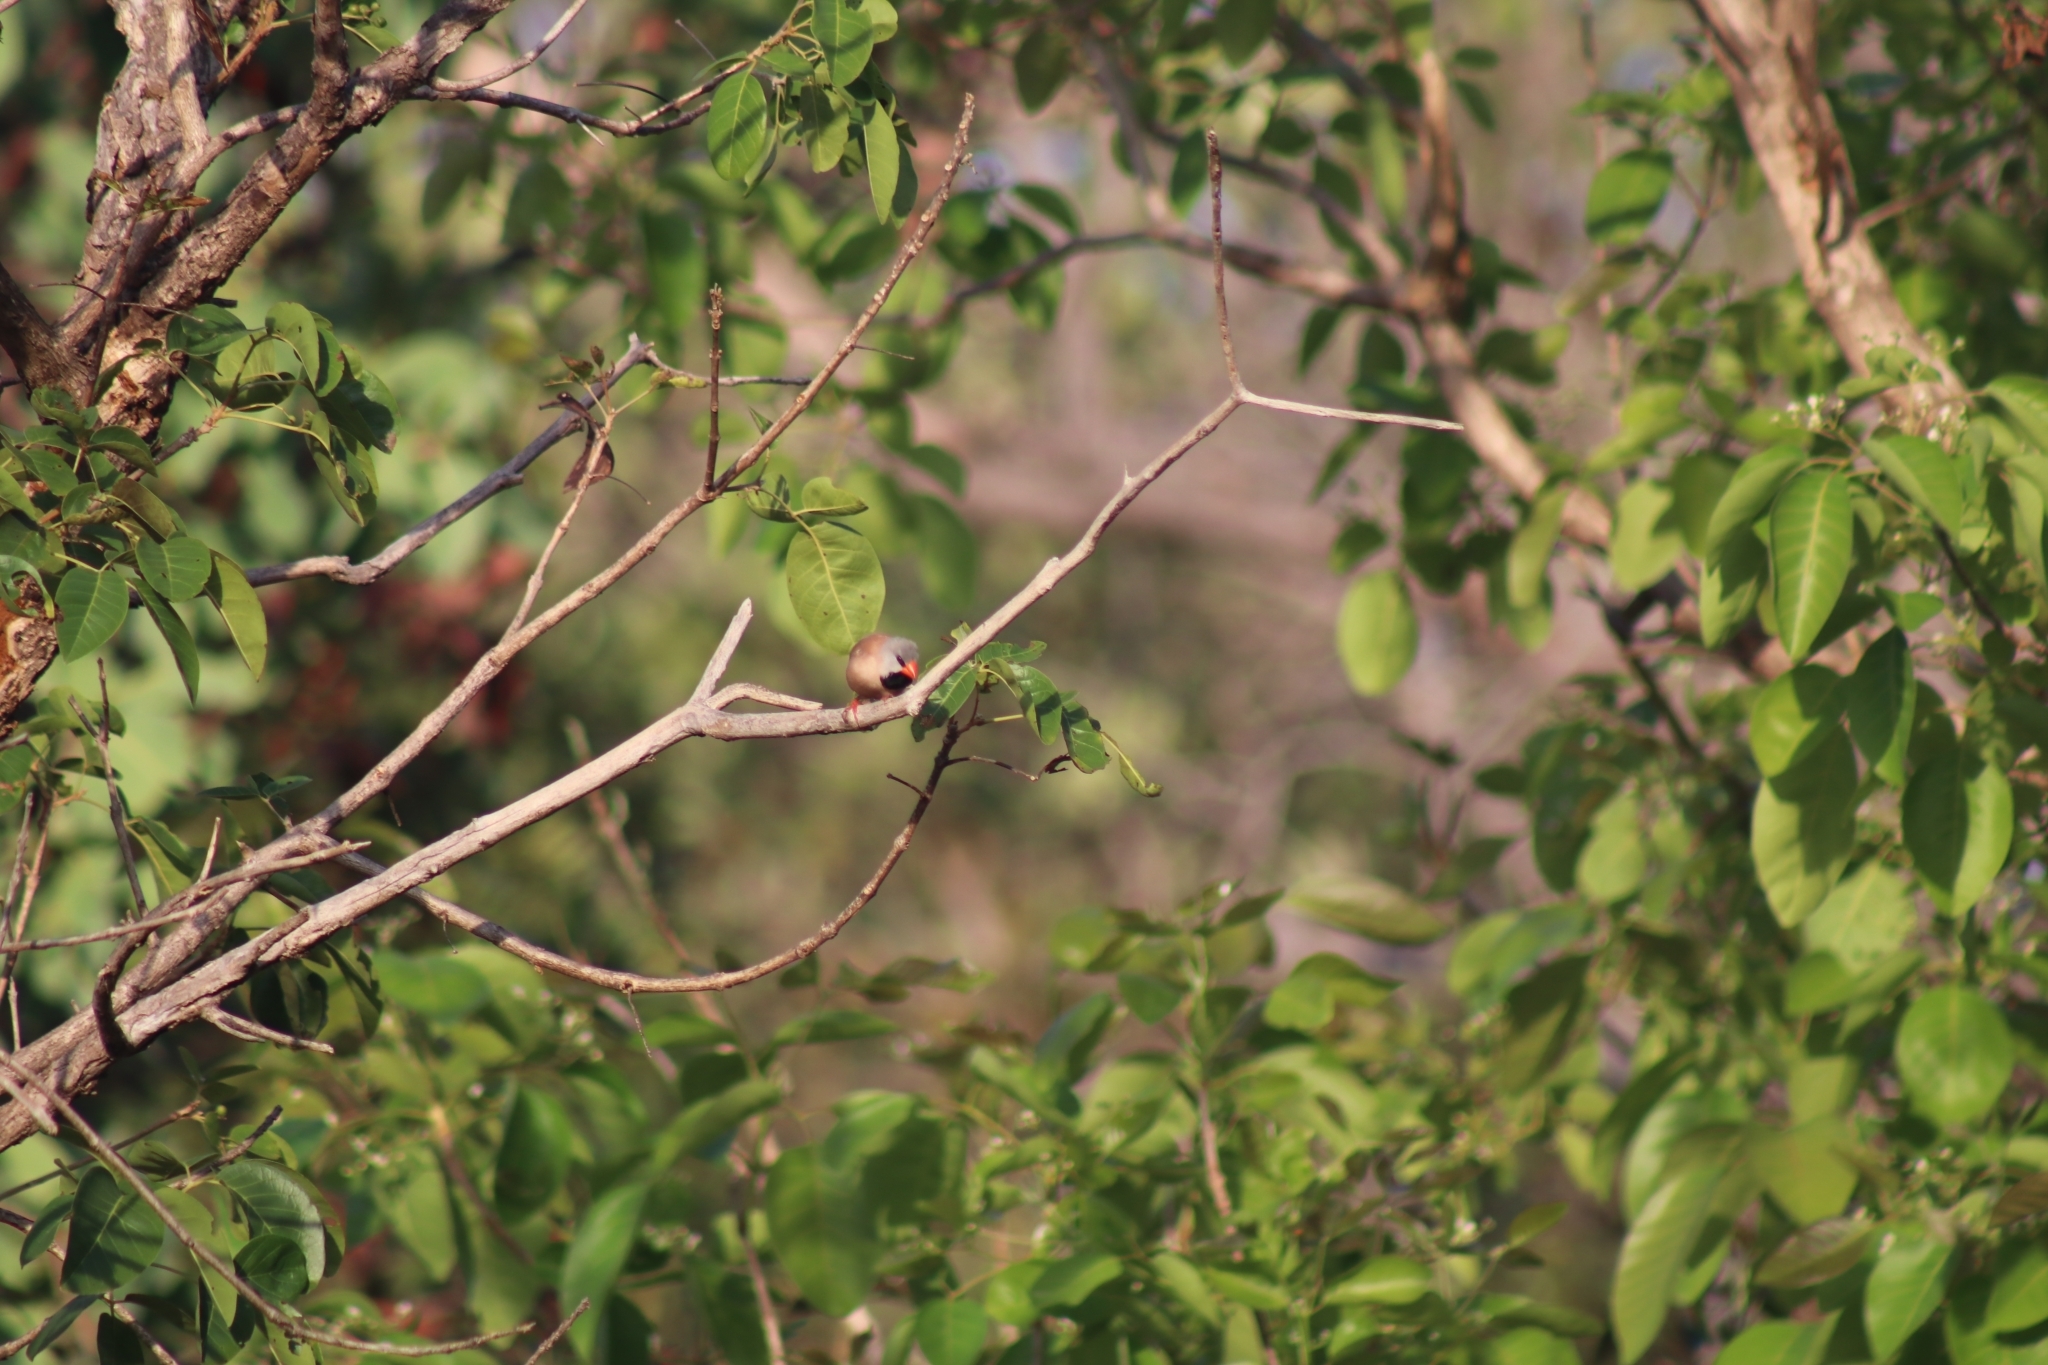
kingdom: Animalia
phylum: Chordata
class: Aves
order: Passeriformes
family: Estrildidae
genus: Poephila
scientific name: Poephila acuticauda
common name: Long-tailed finch
